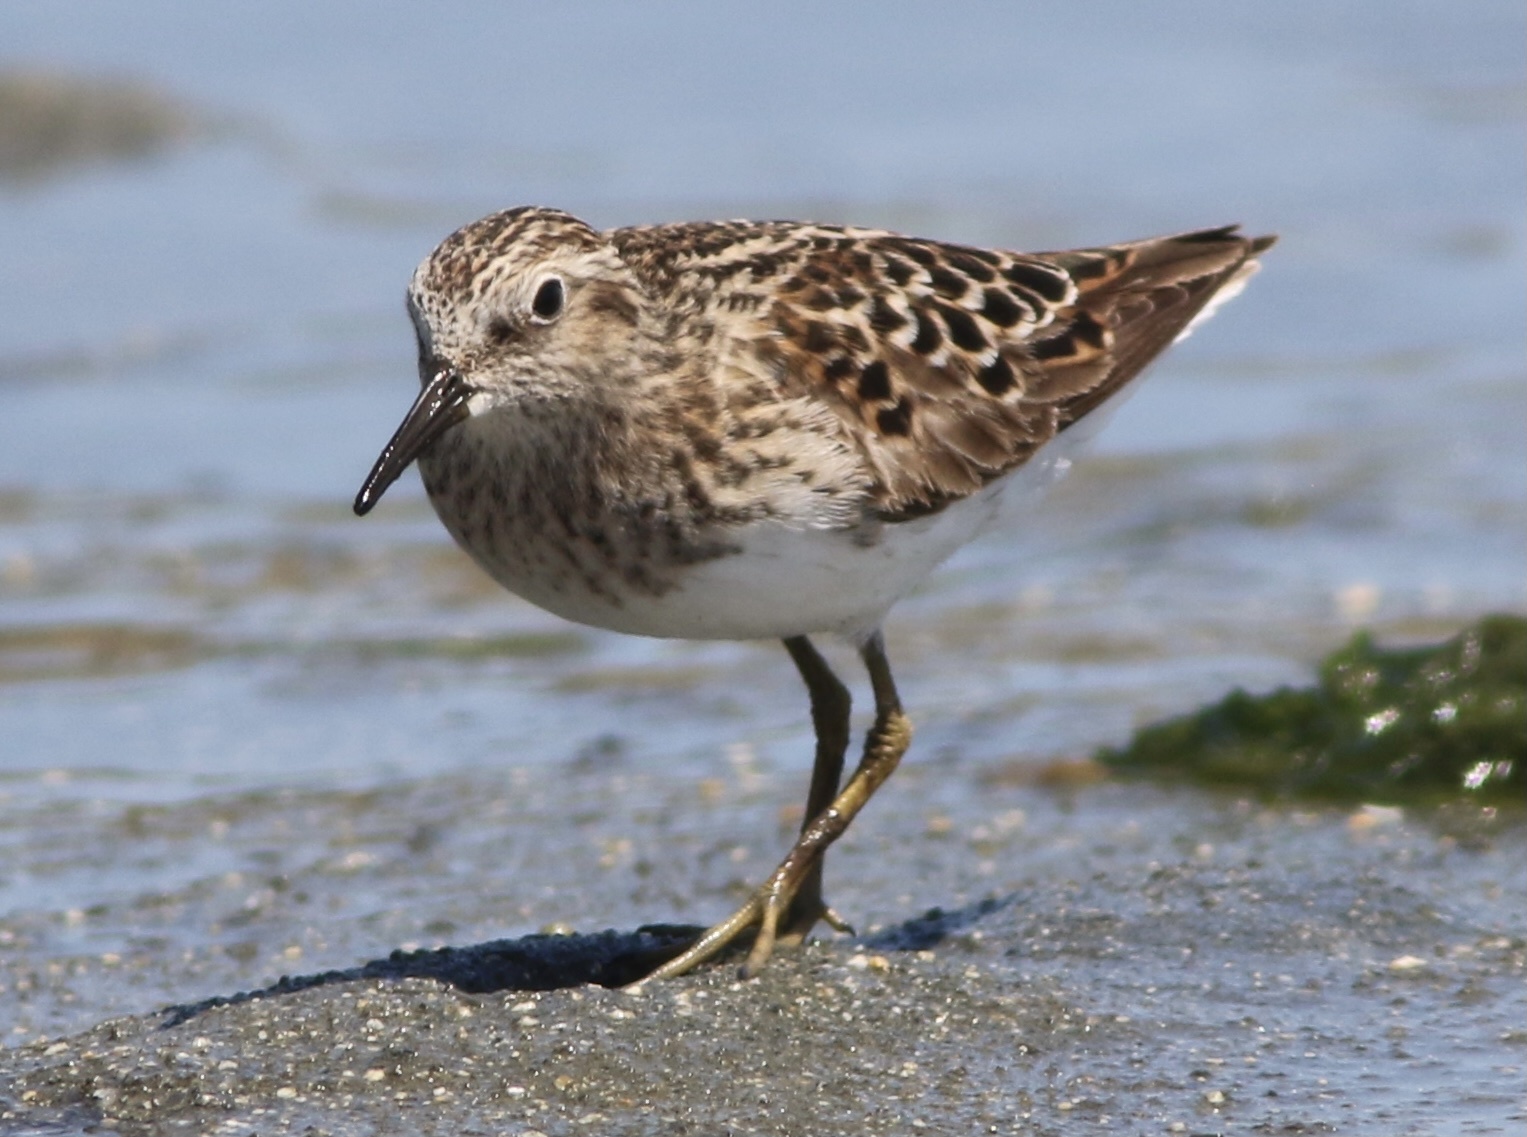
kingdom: Animalia
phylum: Chordata
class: Aves
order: Charadriiformes
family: Scolopacidae
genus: Calidris
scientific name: Calidris minutilla
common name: Least sandpiper
